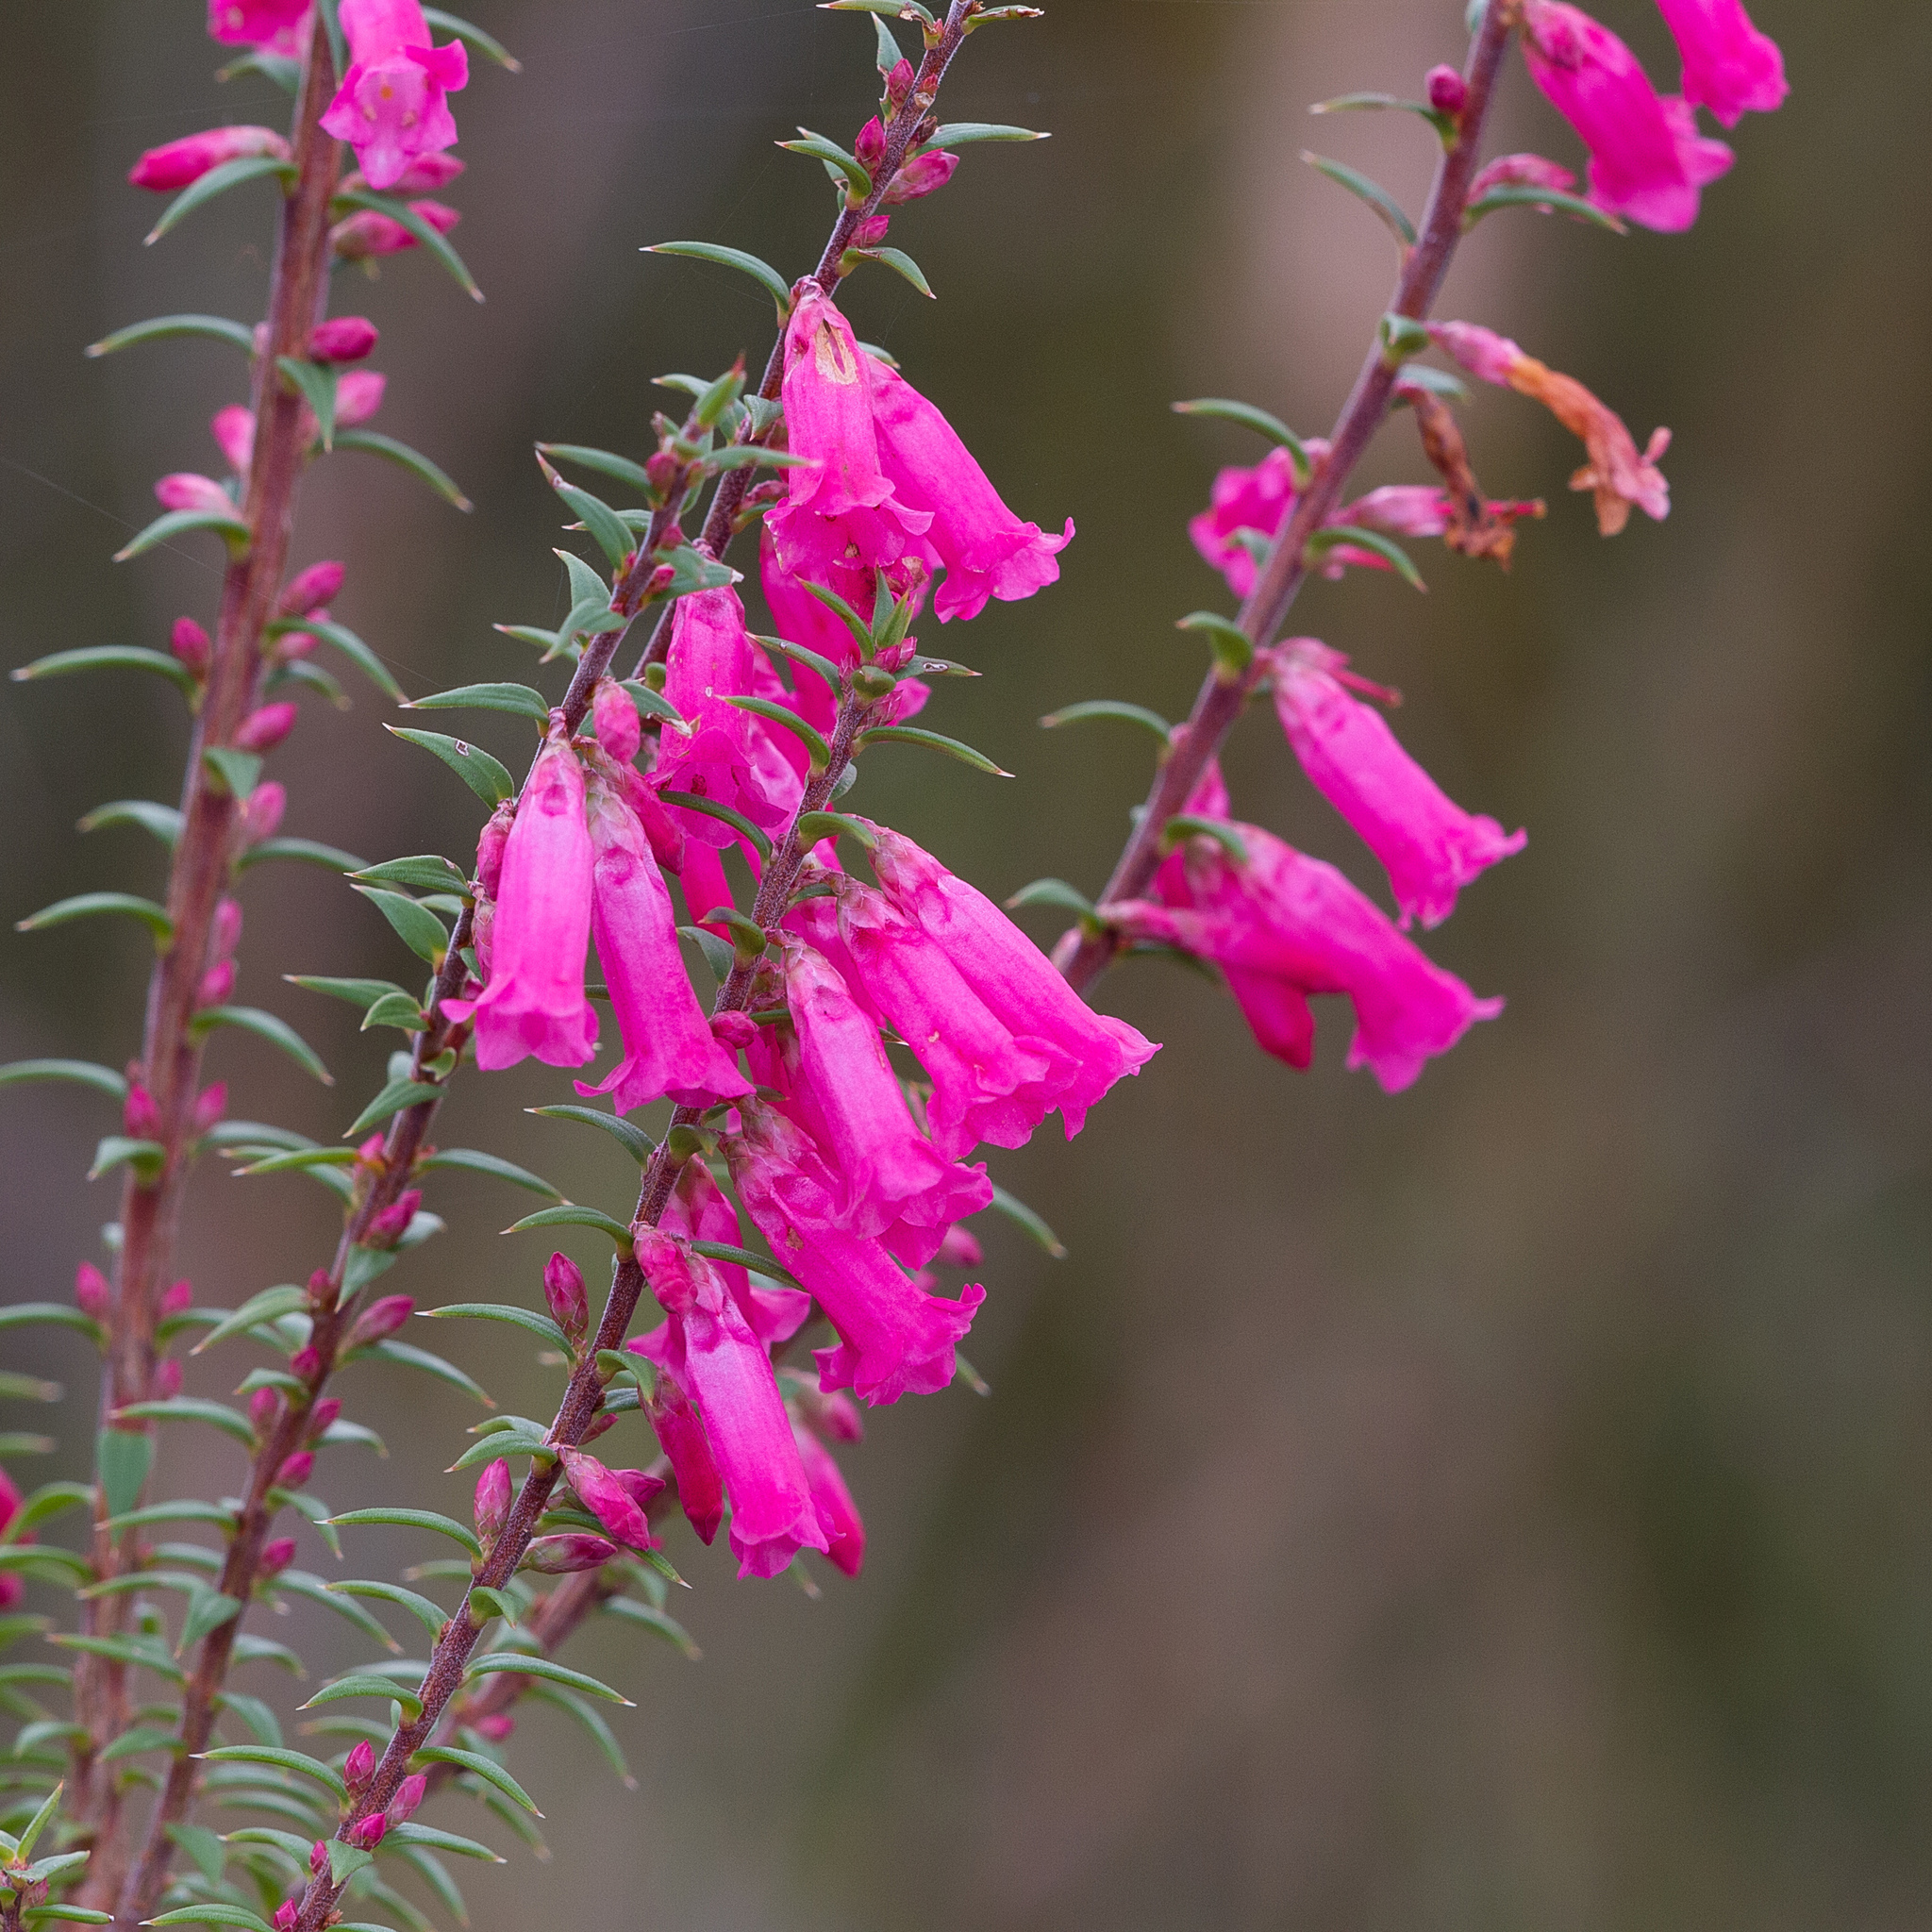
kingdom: Plantae
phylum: Tracheophyta
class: Magnoliopsida
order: Ericales
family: Ericaceae
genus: Epacris
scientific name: Epacris impressa
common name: Common-heath
